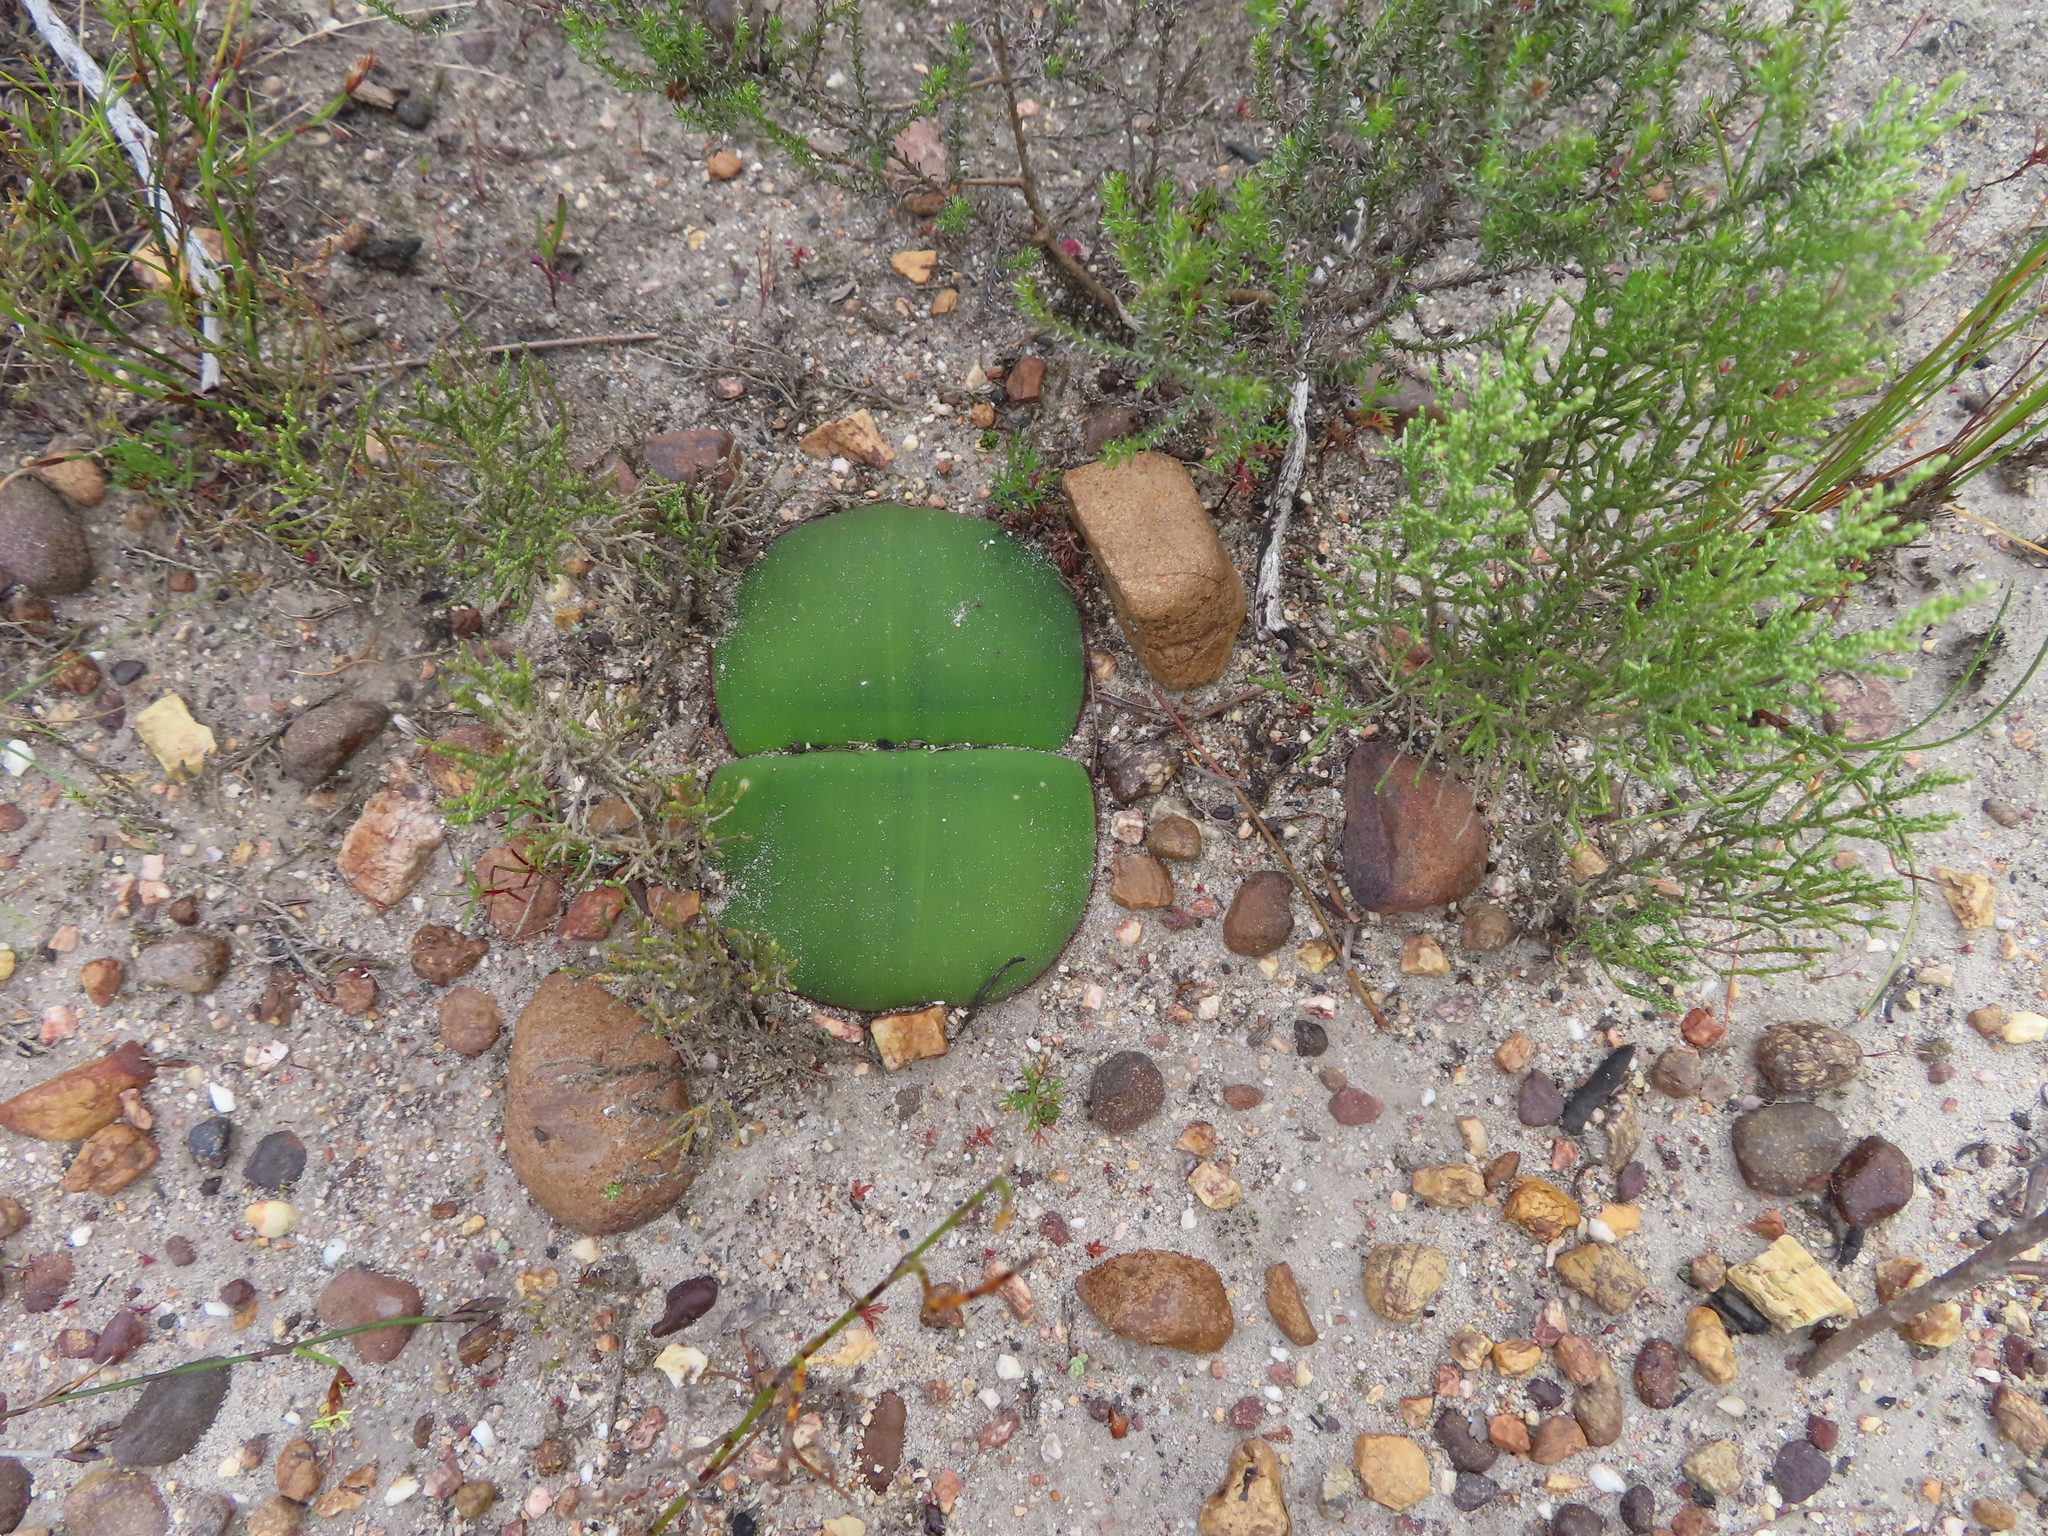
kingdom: Plantae
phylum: Tracheophyta
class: Liliopsida
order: Asparagales
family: Amaryllidaceae
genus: Haemanthus
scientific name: Haemanthus sanguineus
